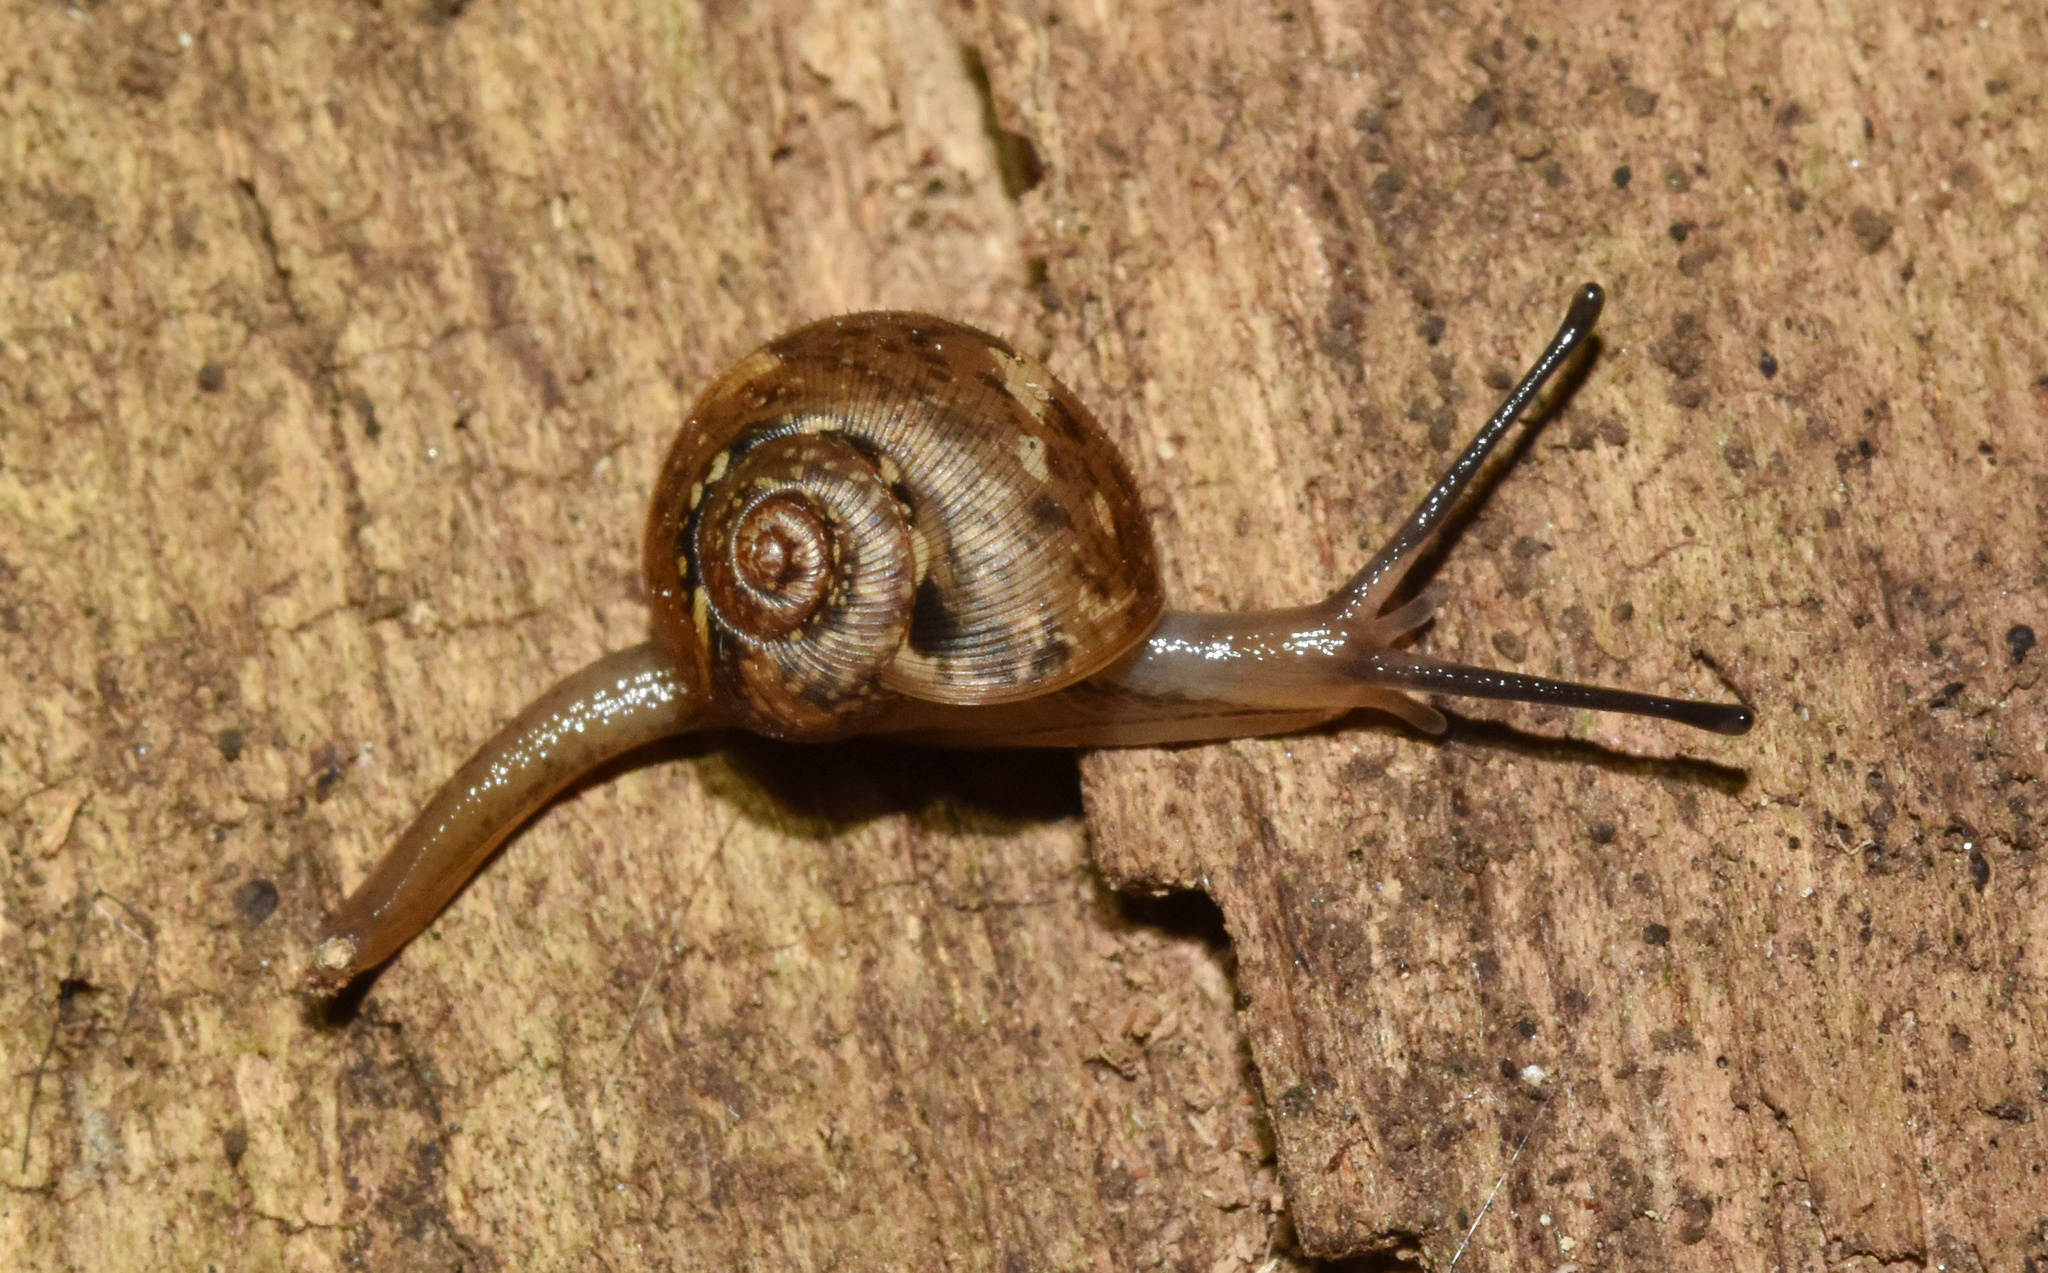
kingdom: Animalia
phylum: Mollusca
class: Gastropoda
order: Stylommatophora
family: Charopidae
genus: Chalcocystis
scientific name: Chalcocystis aenea
